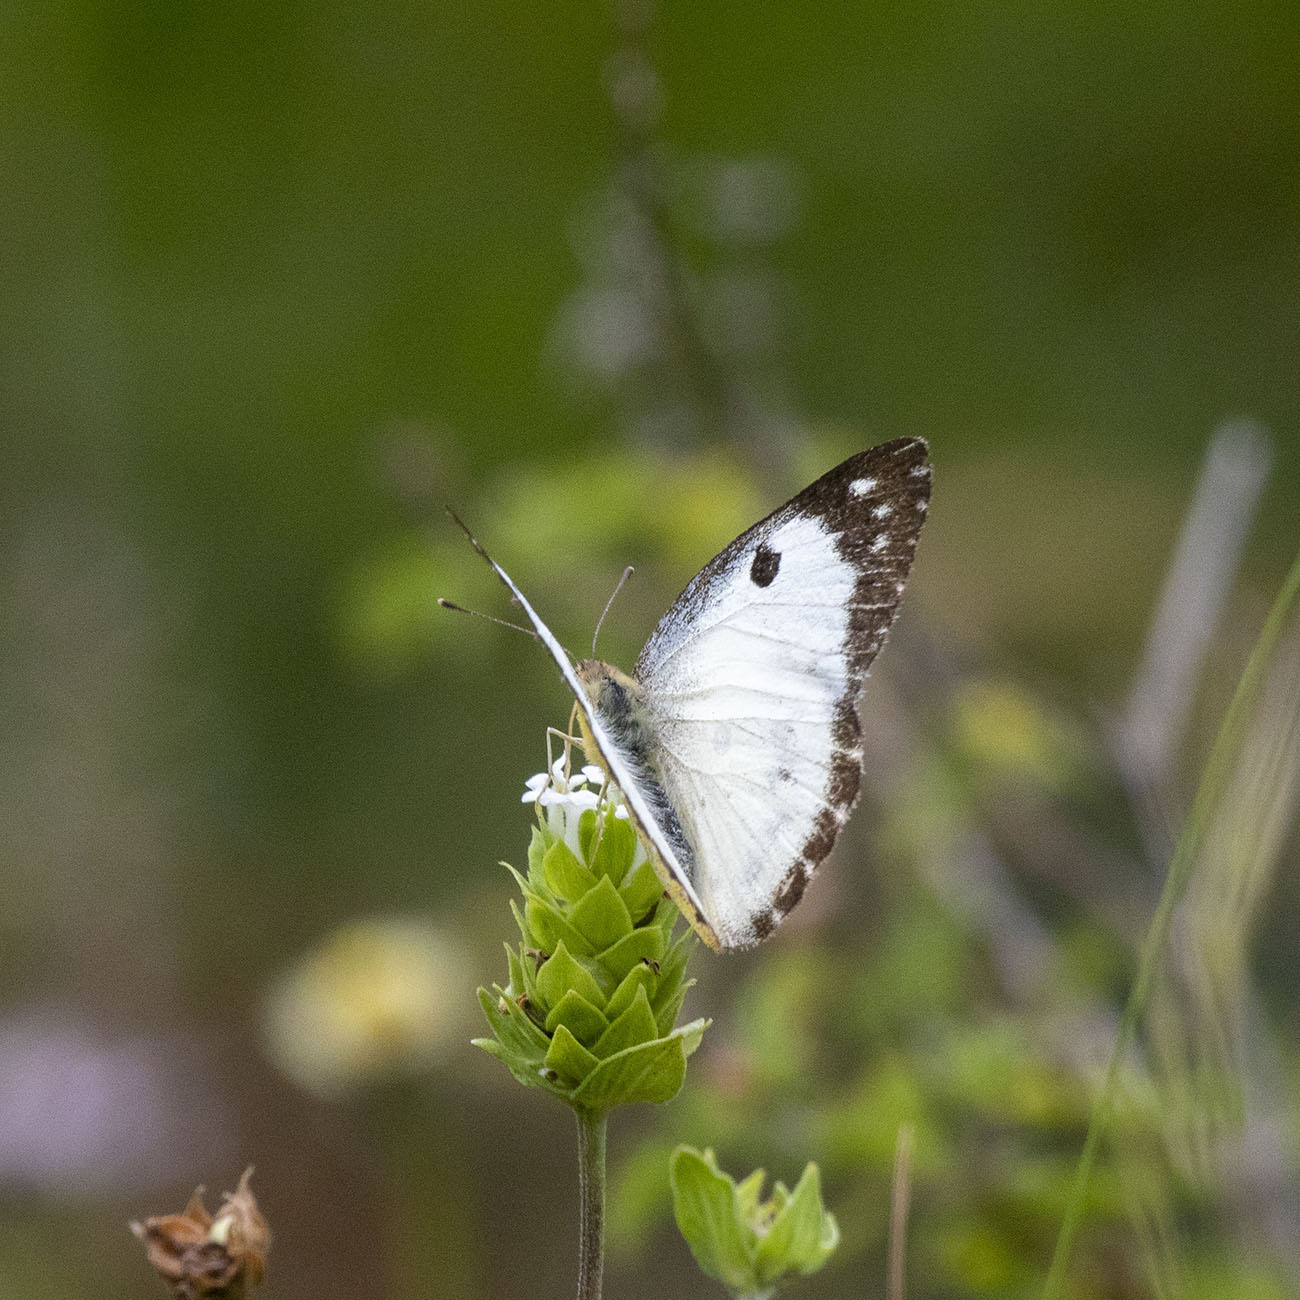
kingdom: Animalia
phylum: Arthropoda
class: Insecta
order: Lepidoptera
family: Pieridae
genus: Colotis
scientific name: Colotis fausta
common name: Large salmon arab
